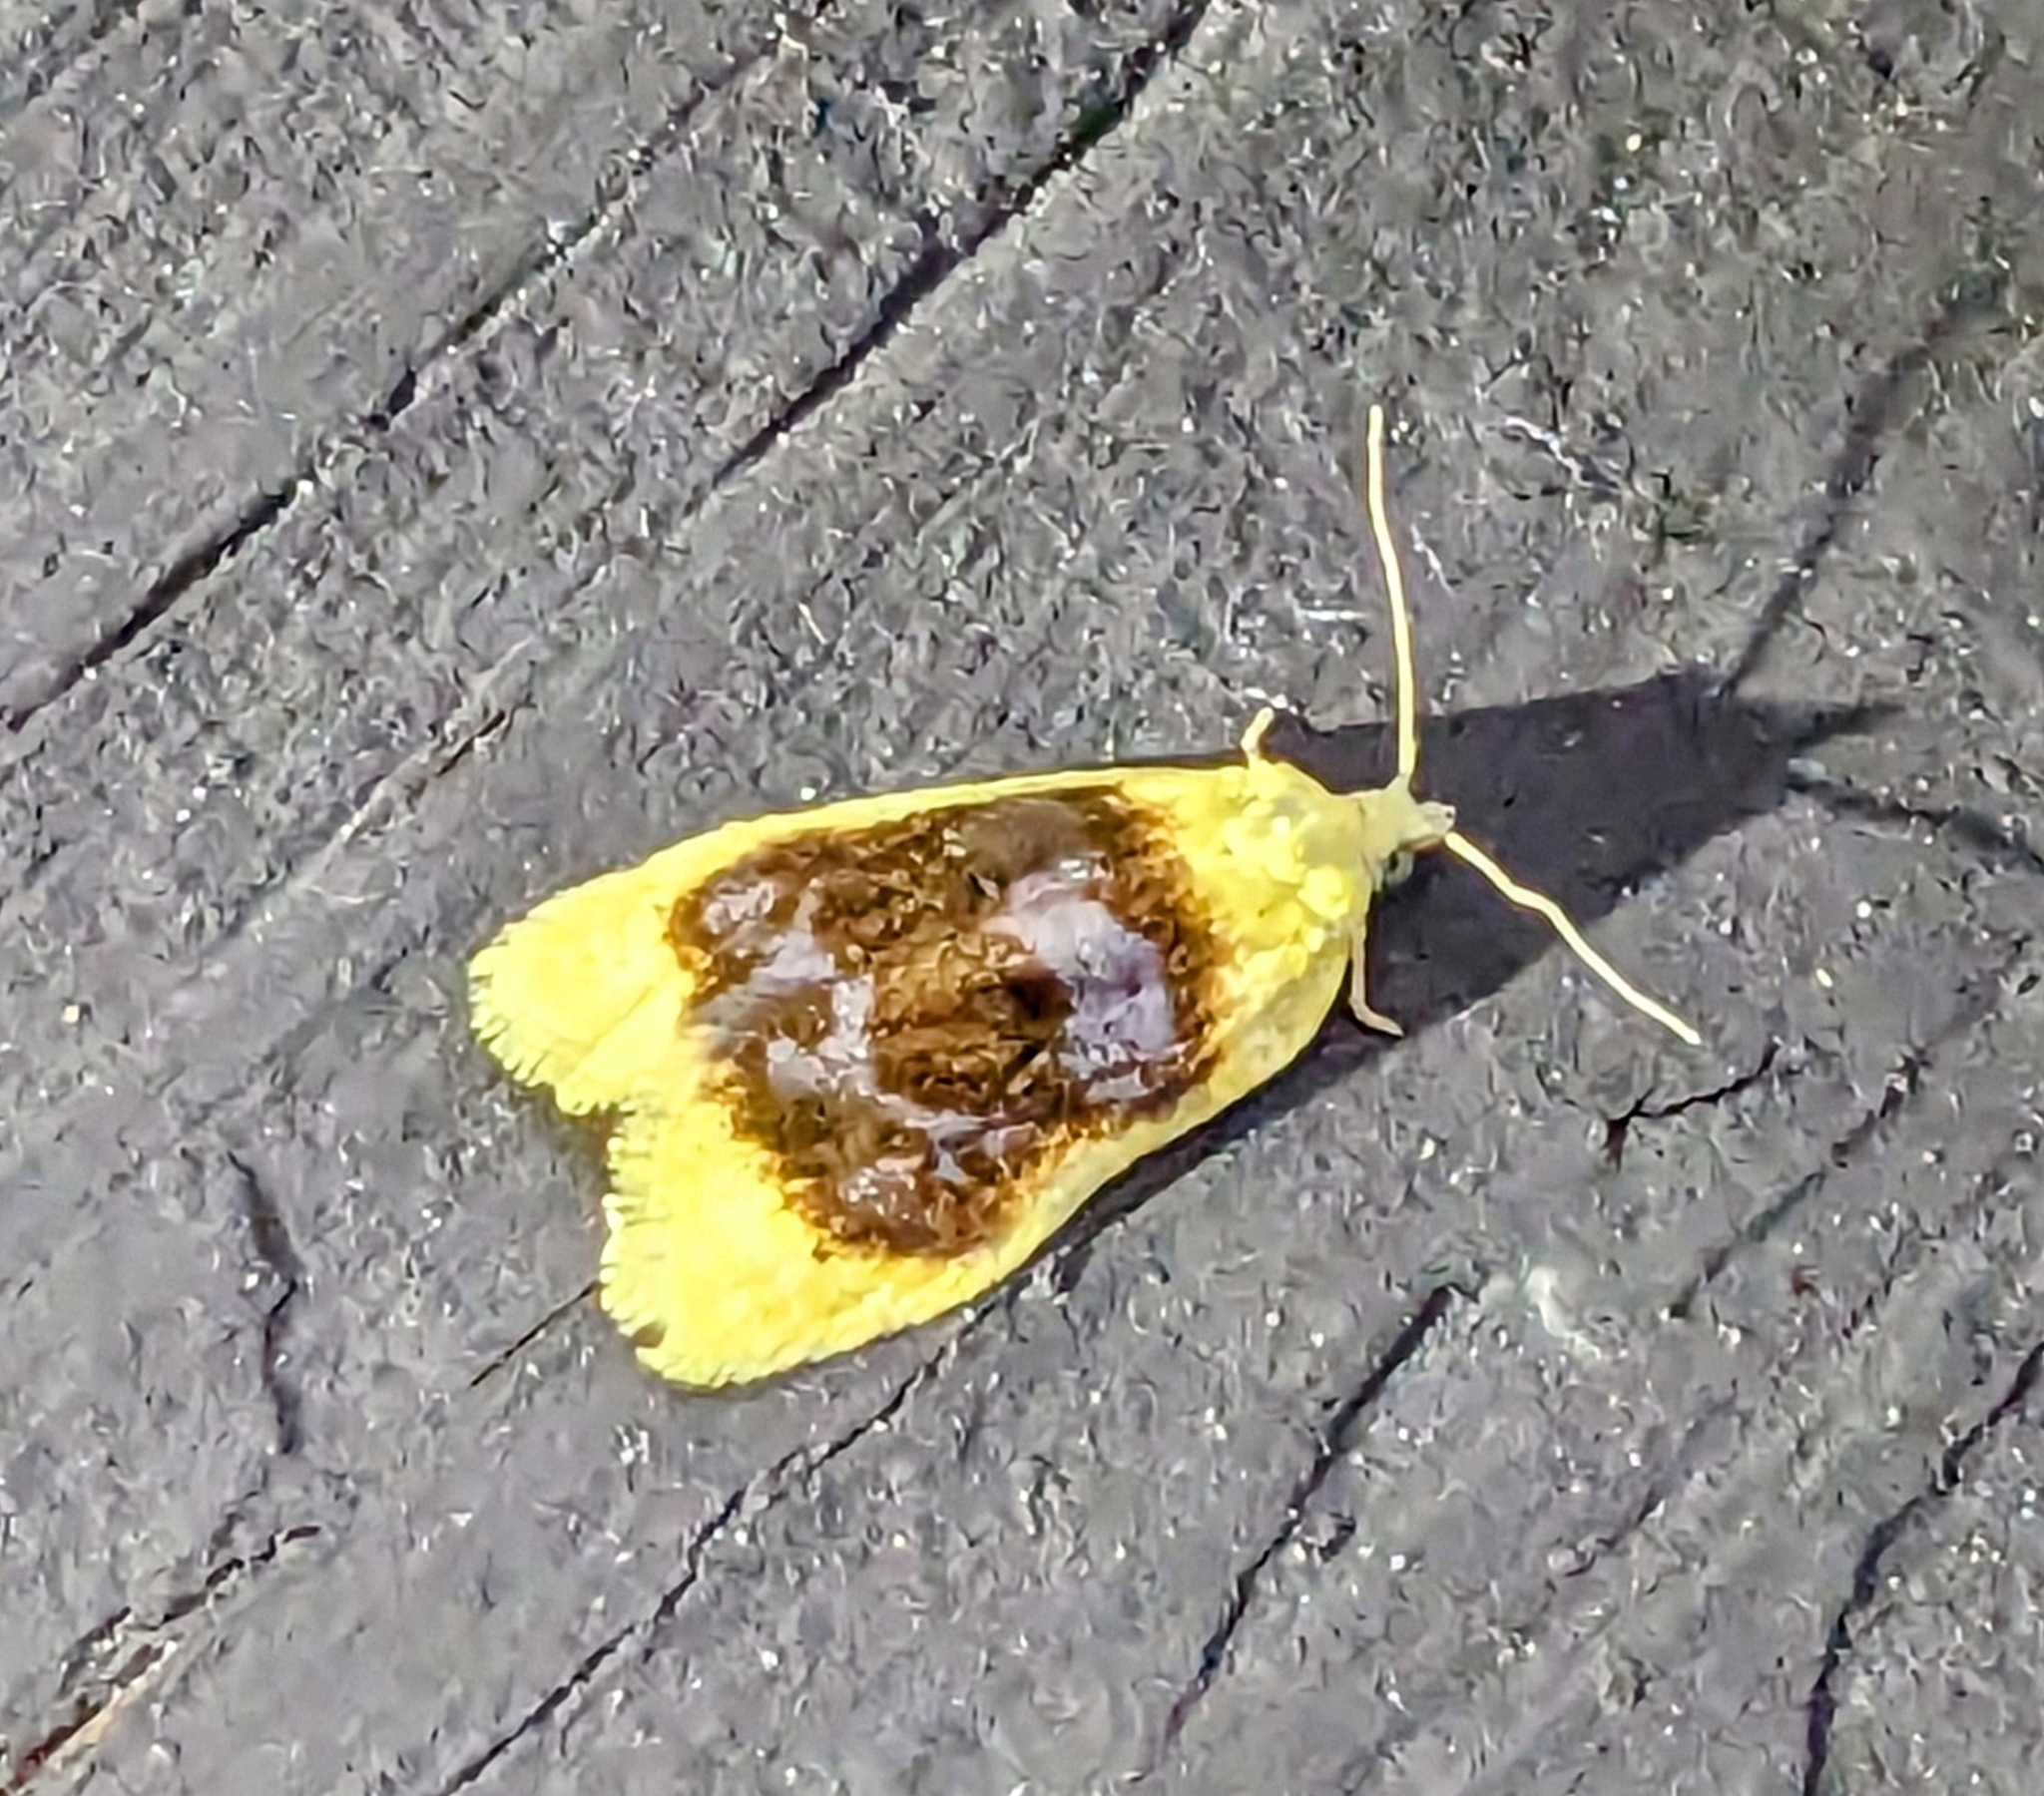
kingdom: Animalia
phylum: Arthropoda
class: Insecta
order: Lepidoptera
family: Tortricidae
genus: Acleris
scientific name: Acleris semipurpurana
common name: Oak leaftier moth
